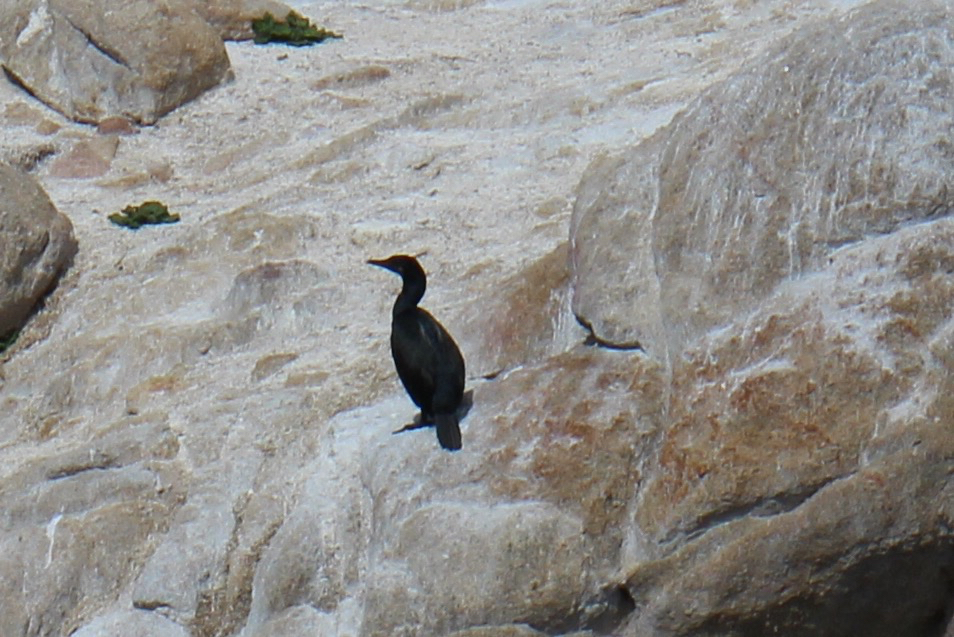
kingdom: Animalia
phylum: Chordata
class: Aves
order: Suliformes
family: Phalacrocoracidae
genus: Urile
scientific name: Urile penicillatus
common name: Brandt's cormorant
